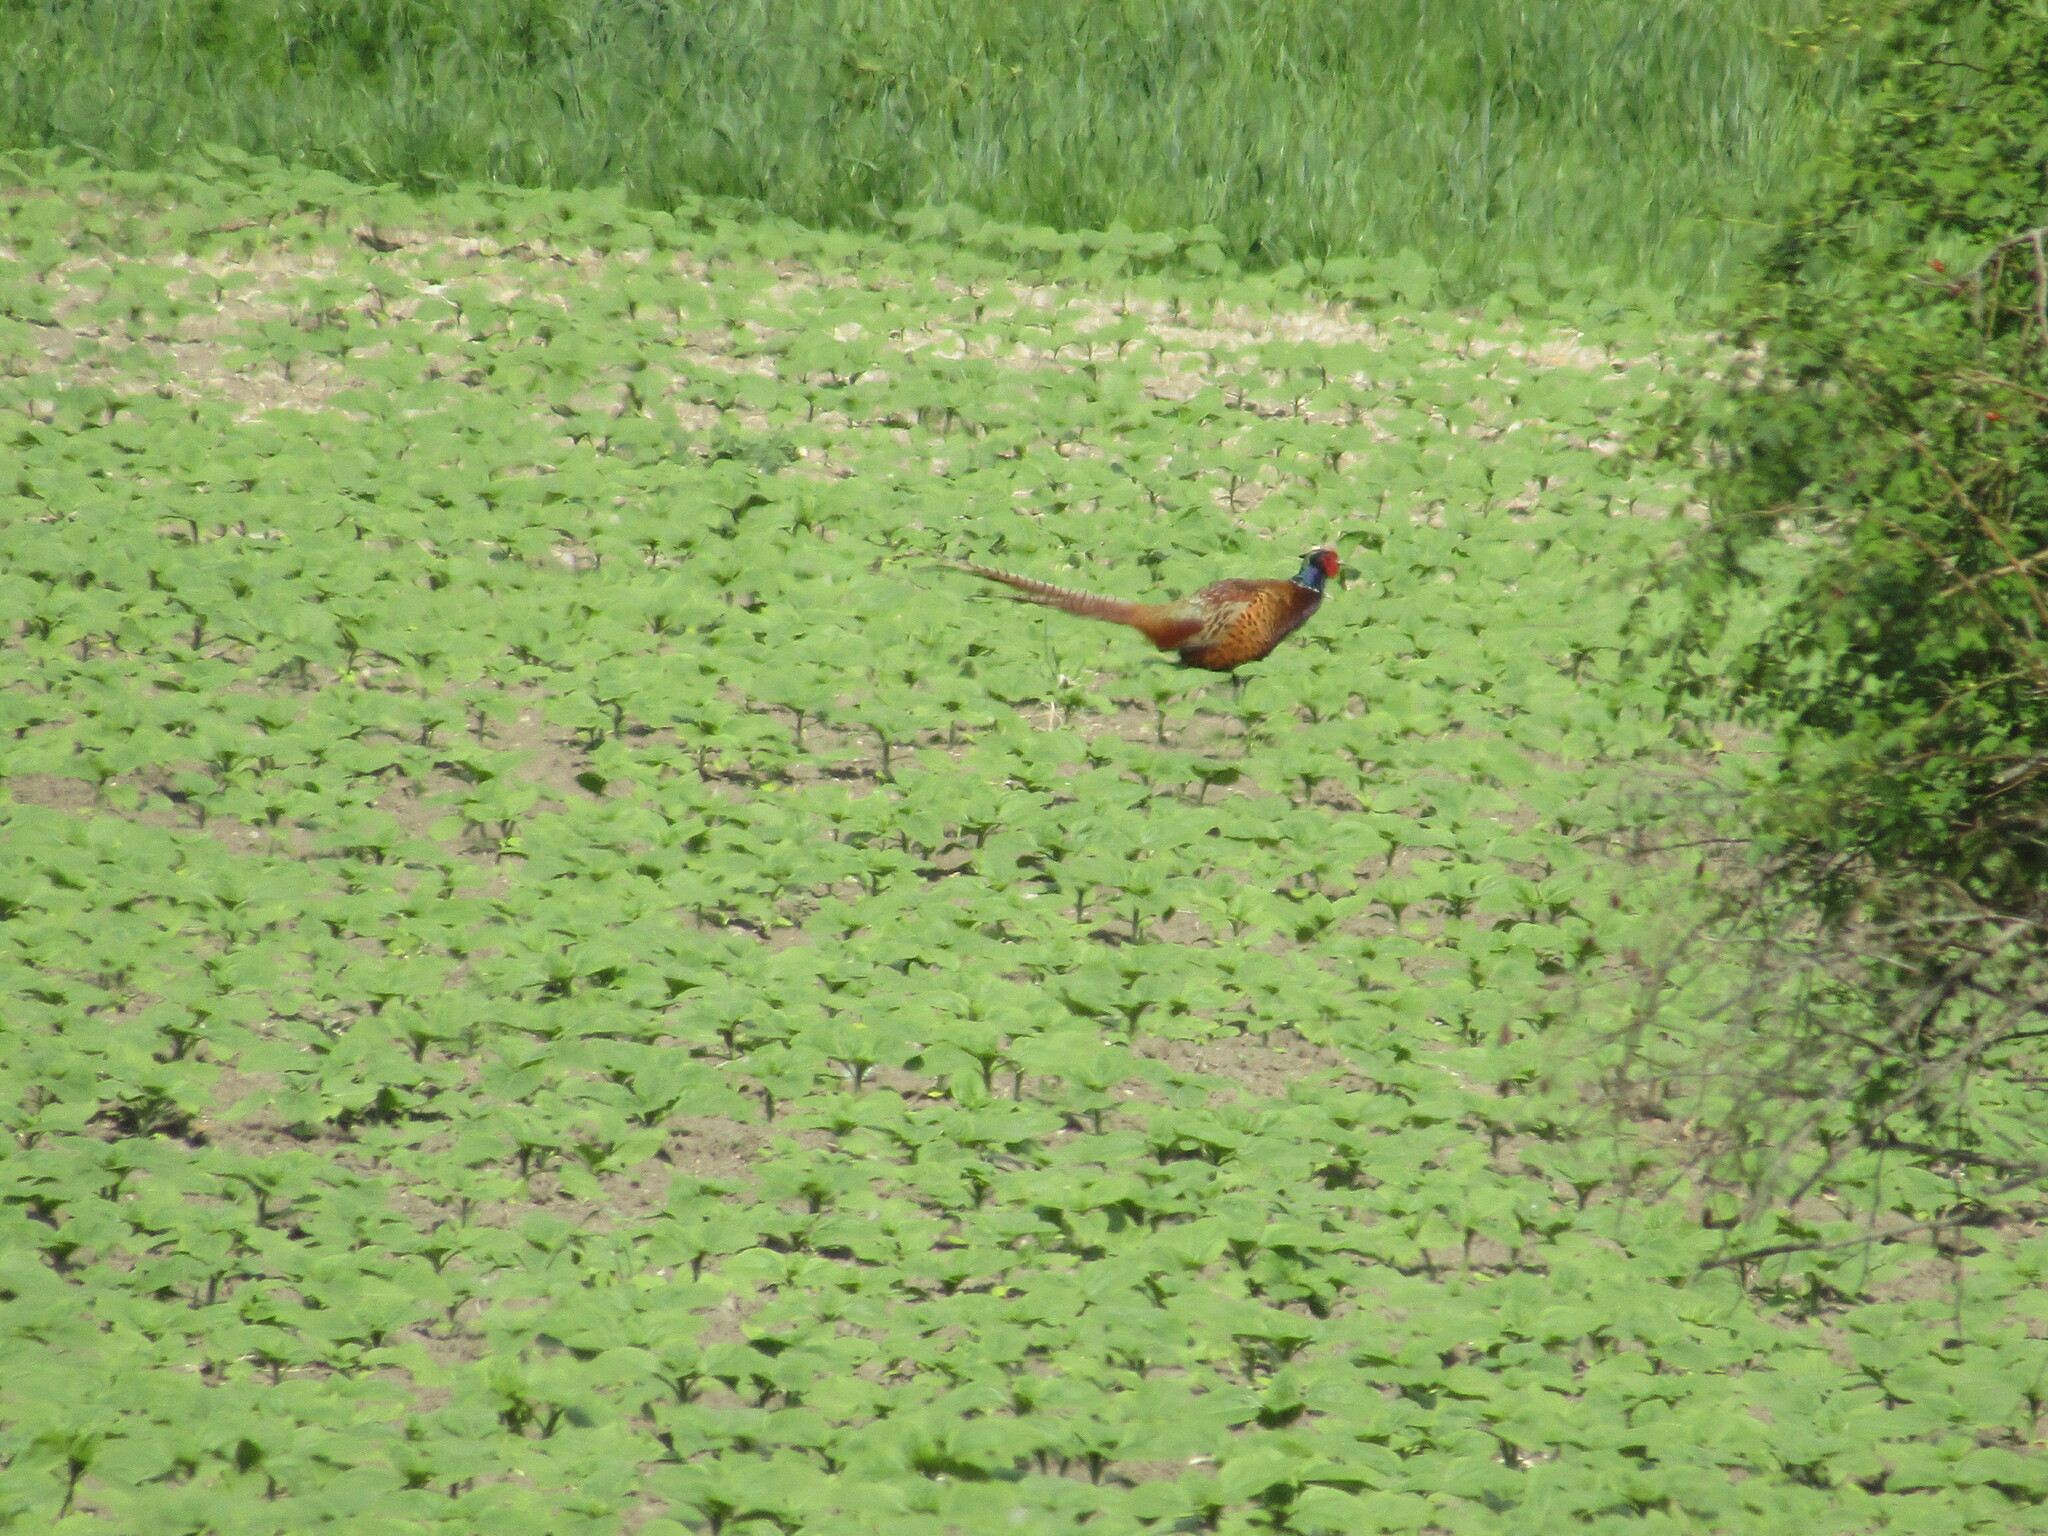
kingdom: Animalia
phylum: Chordata
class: Aves
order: Galliformes
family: Phasianidae
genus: Phasianus
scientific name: Phasianus colchicus
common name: Common pheasant
